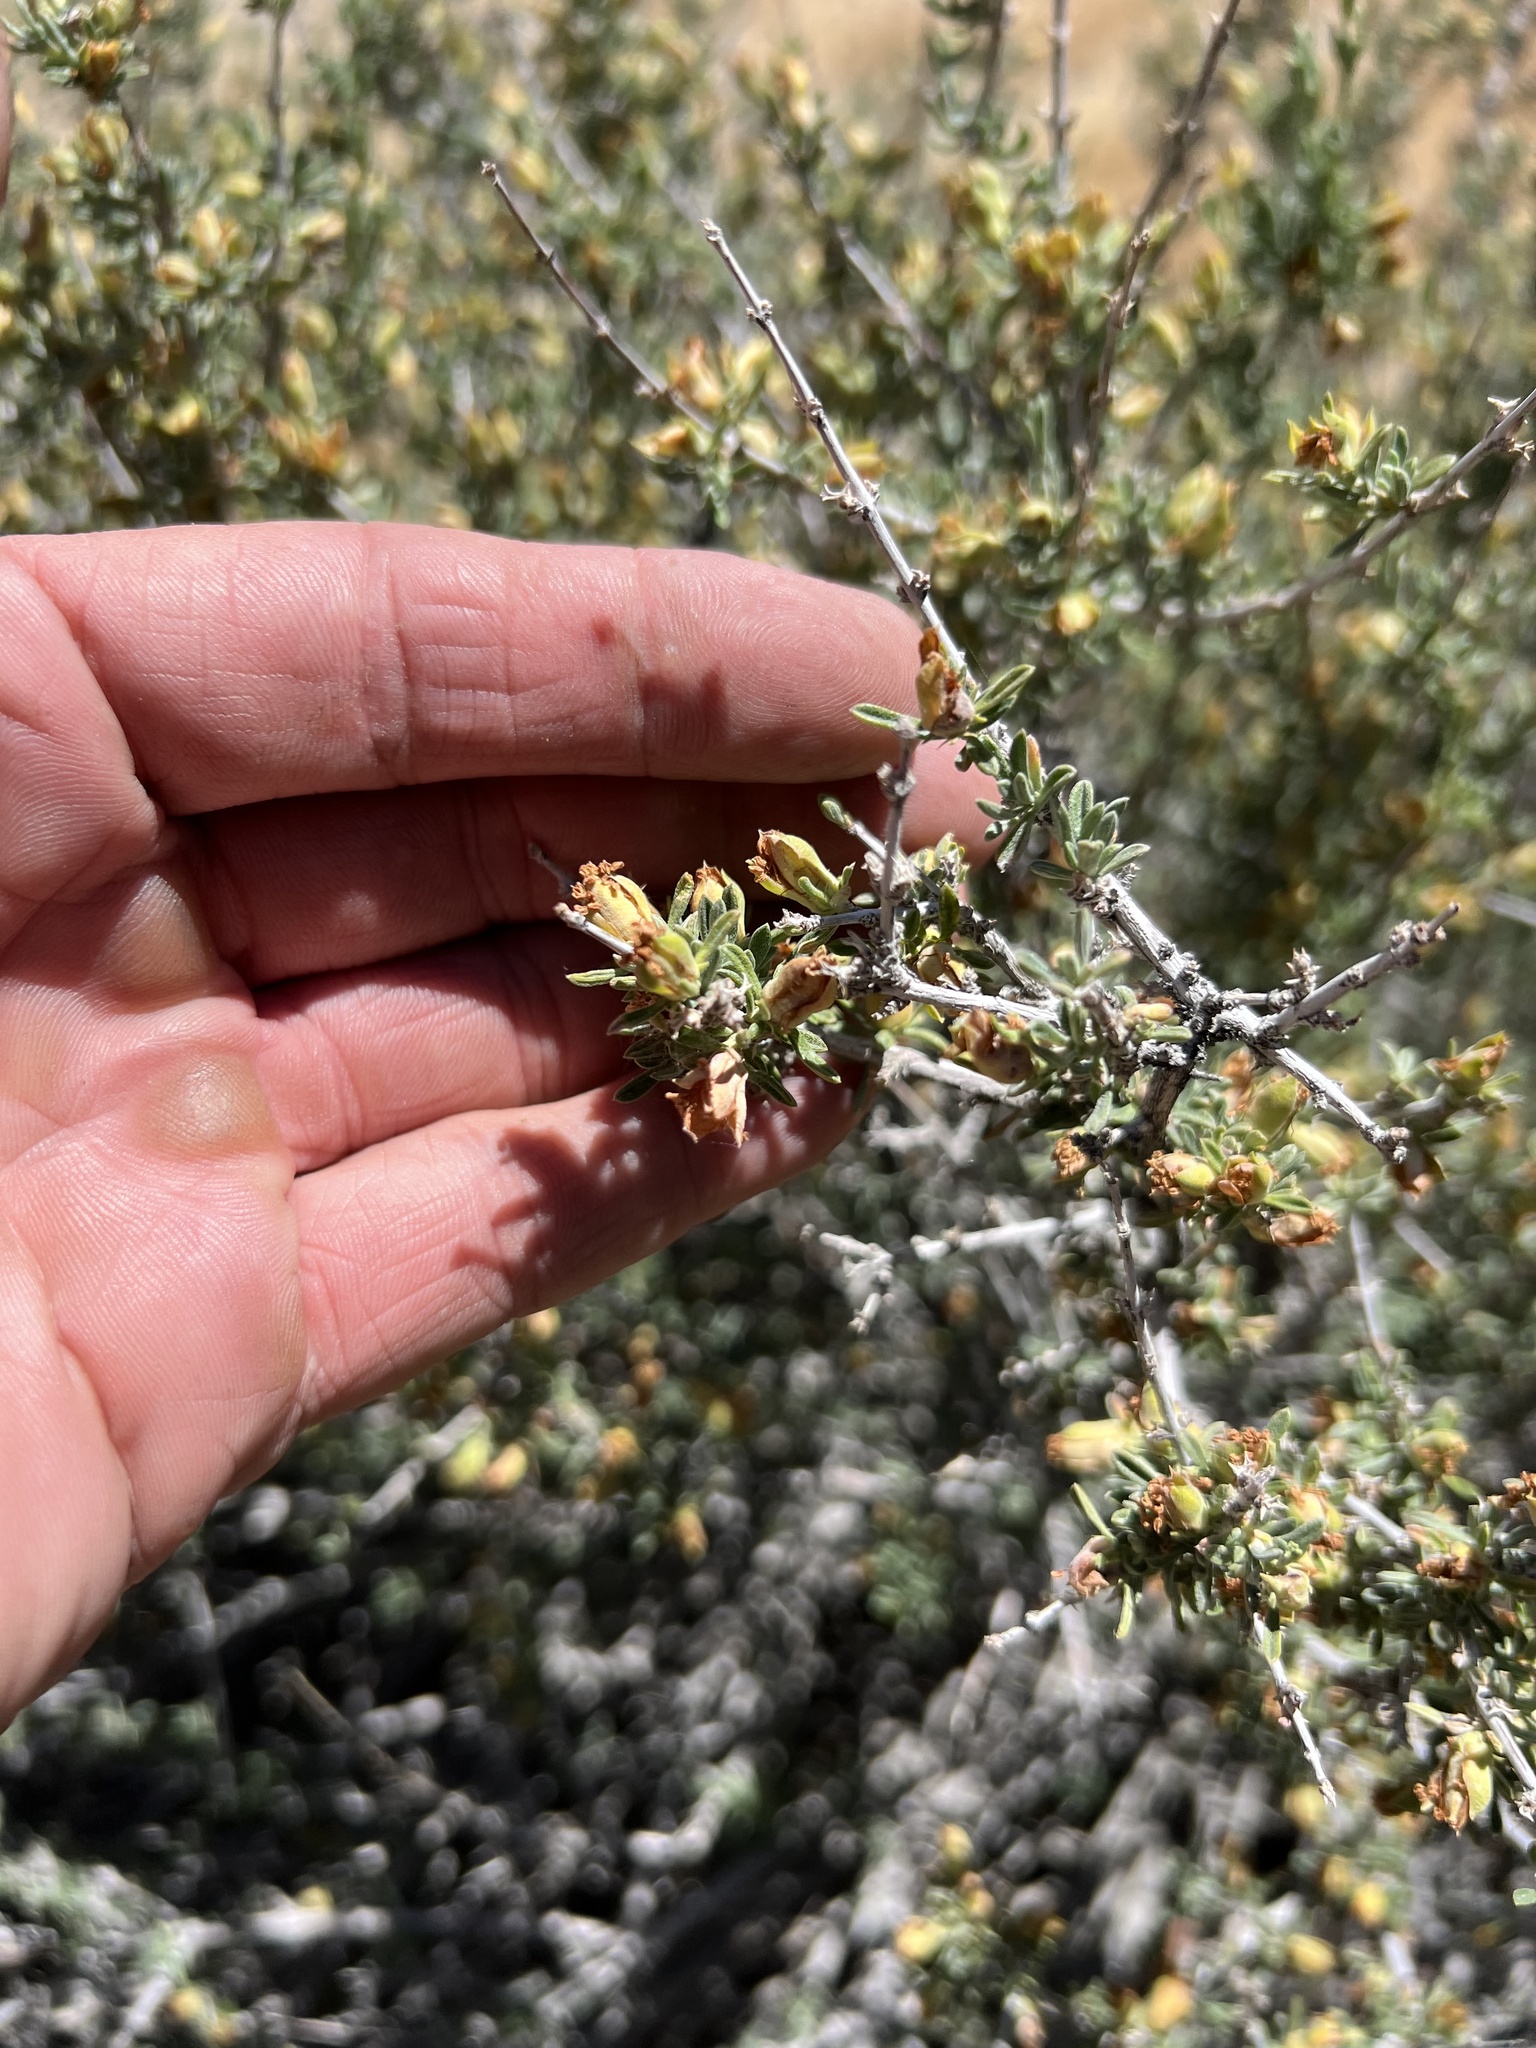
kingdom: Plantae
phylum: Tracheophyta
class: Magnoliopsida
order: Rosales
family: Rosaceae
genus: Coleogyne
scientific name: Coleogyne ramosissima
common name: Blackbrush
